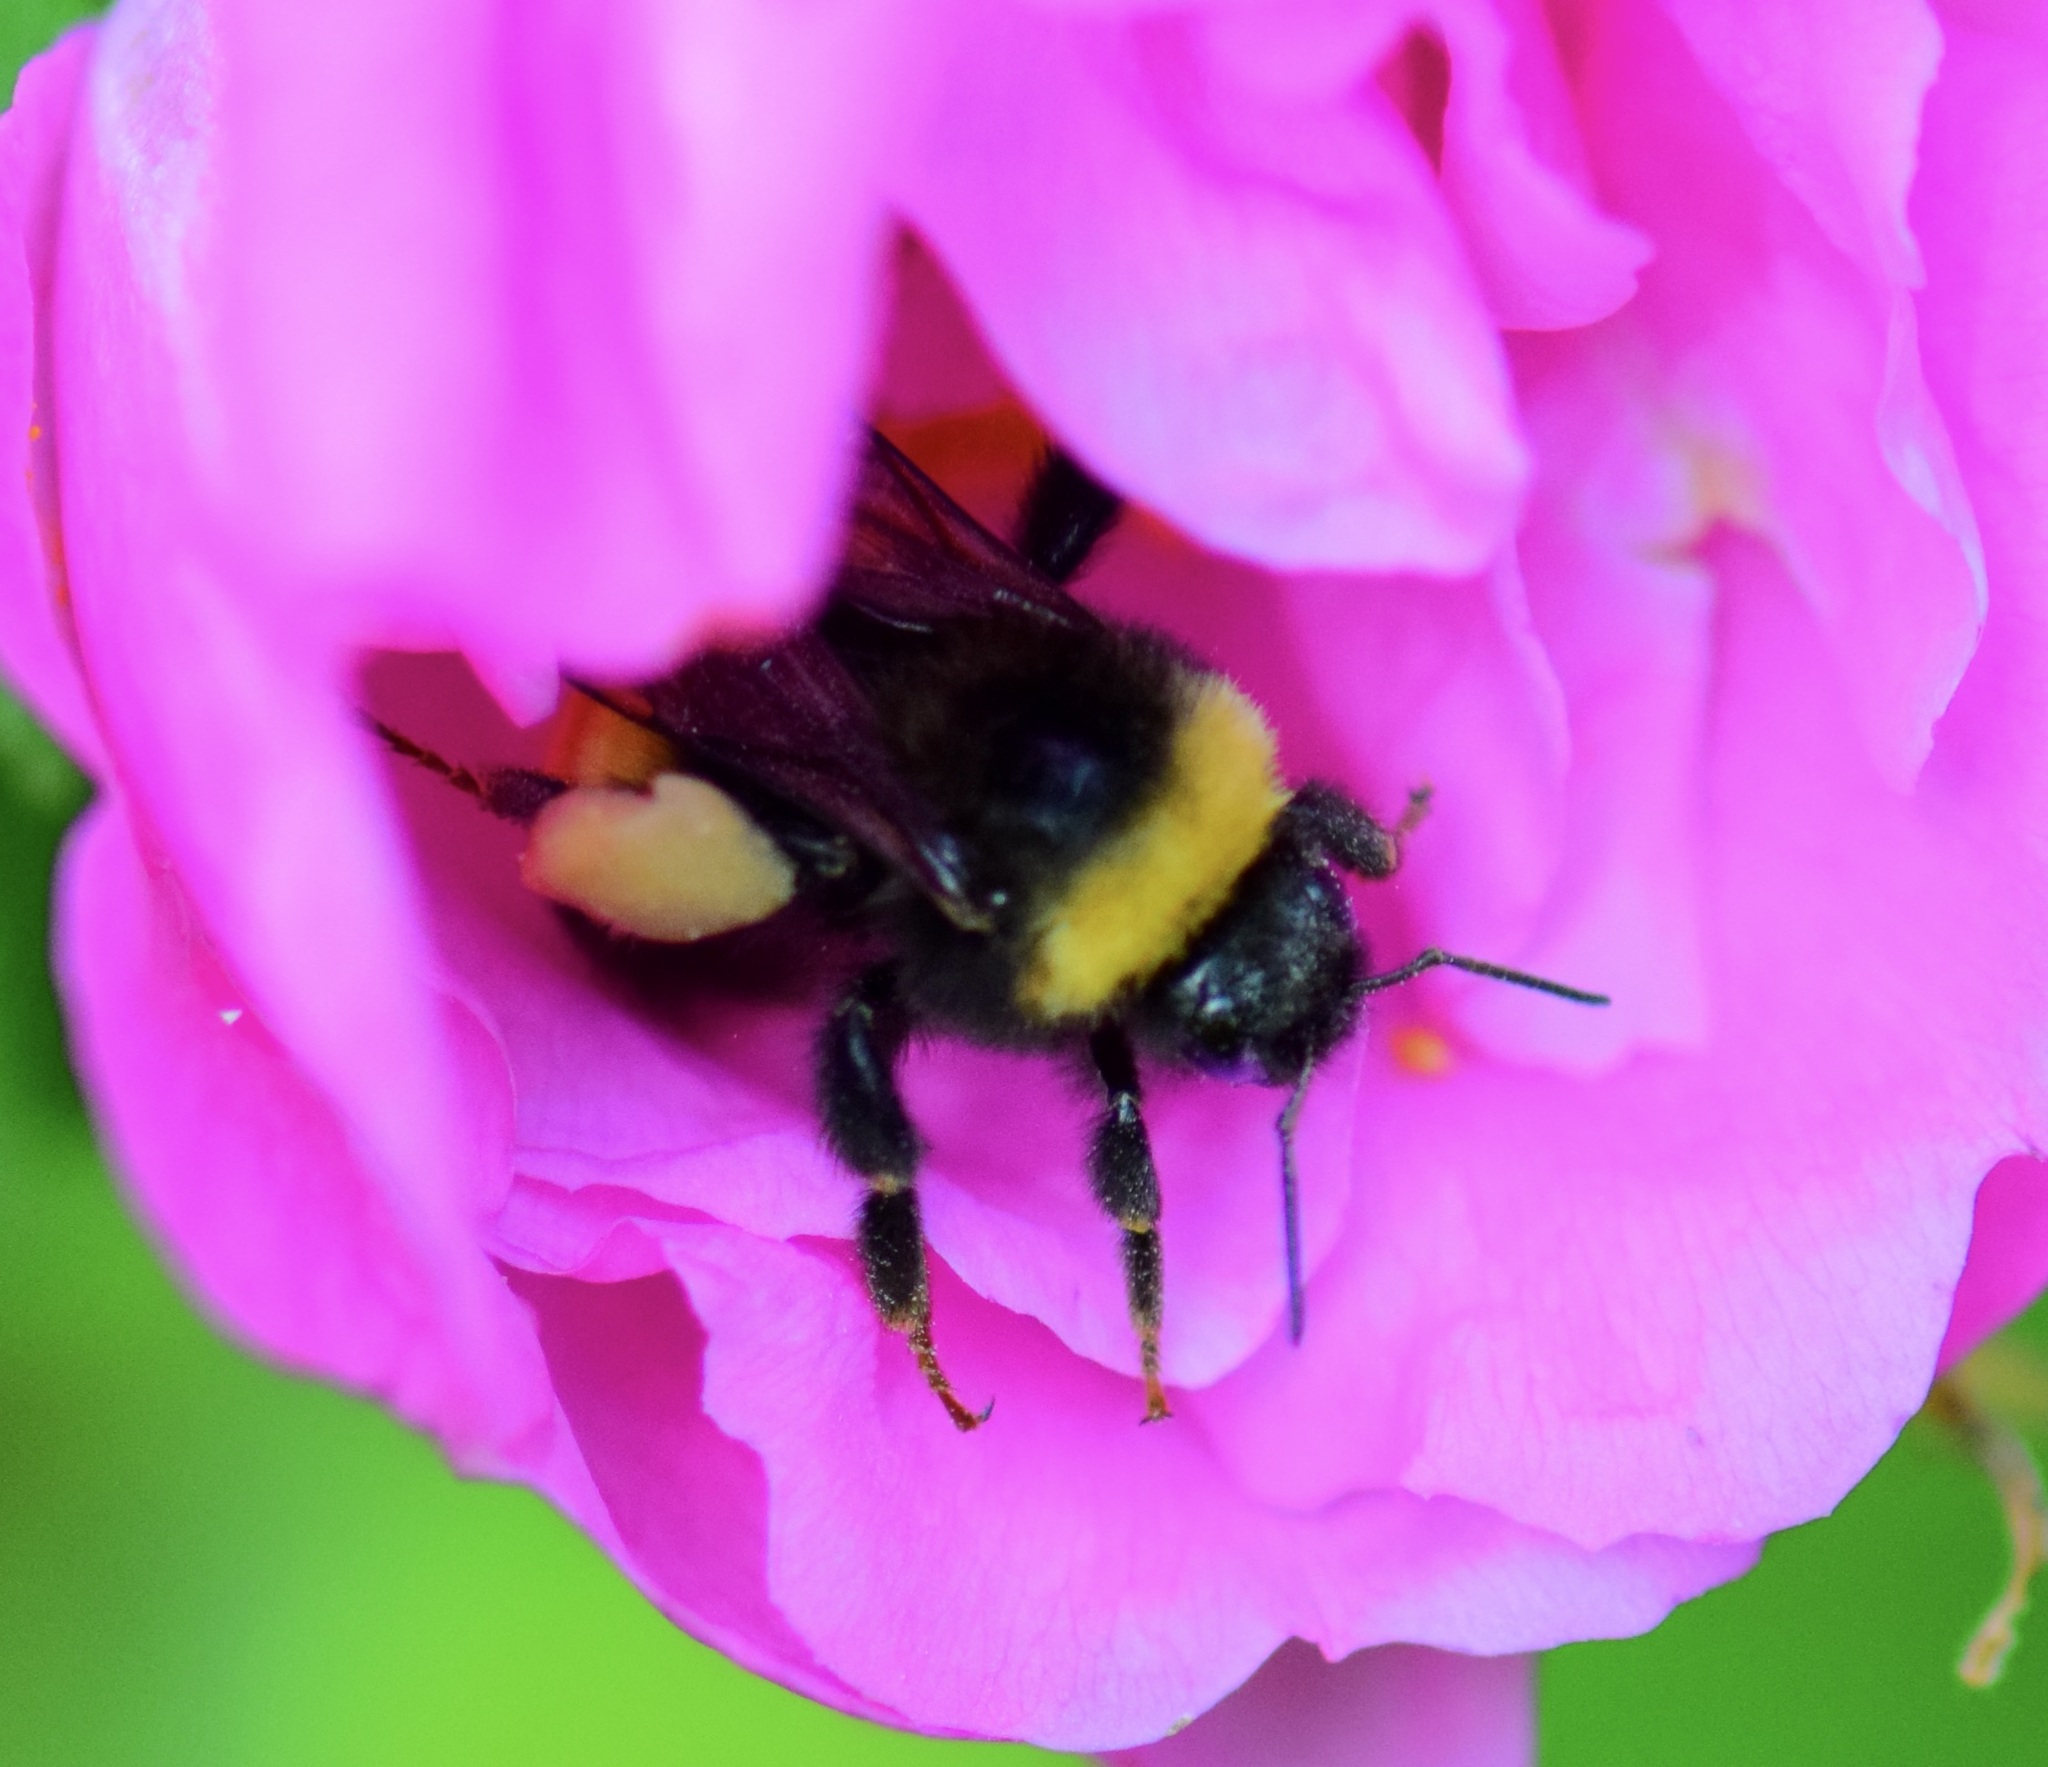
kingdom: Animalia
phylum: Arthropoda
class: Insecta
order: Hymenoptera
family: Apidae
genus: Bombus
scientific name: Bombus terricola
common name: Yellow-banded bumble bee
